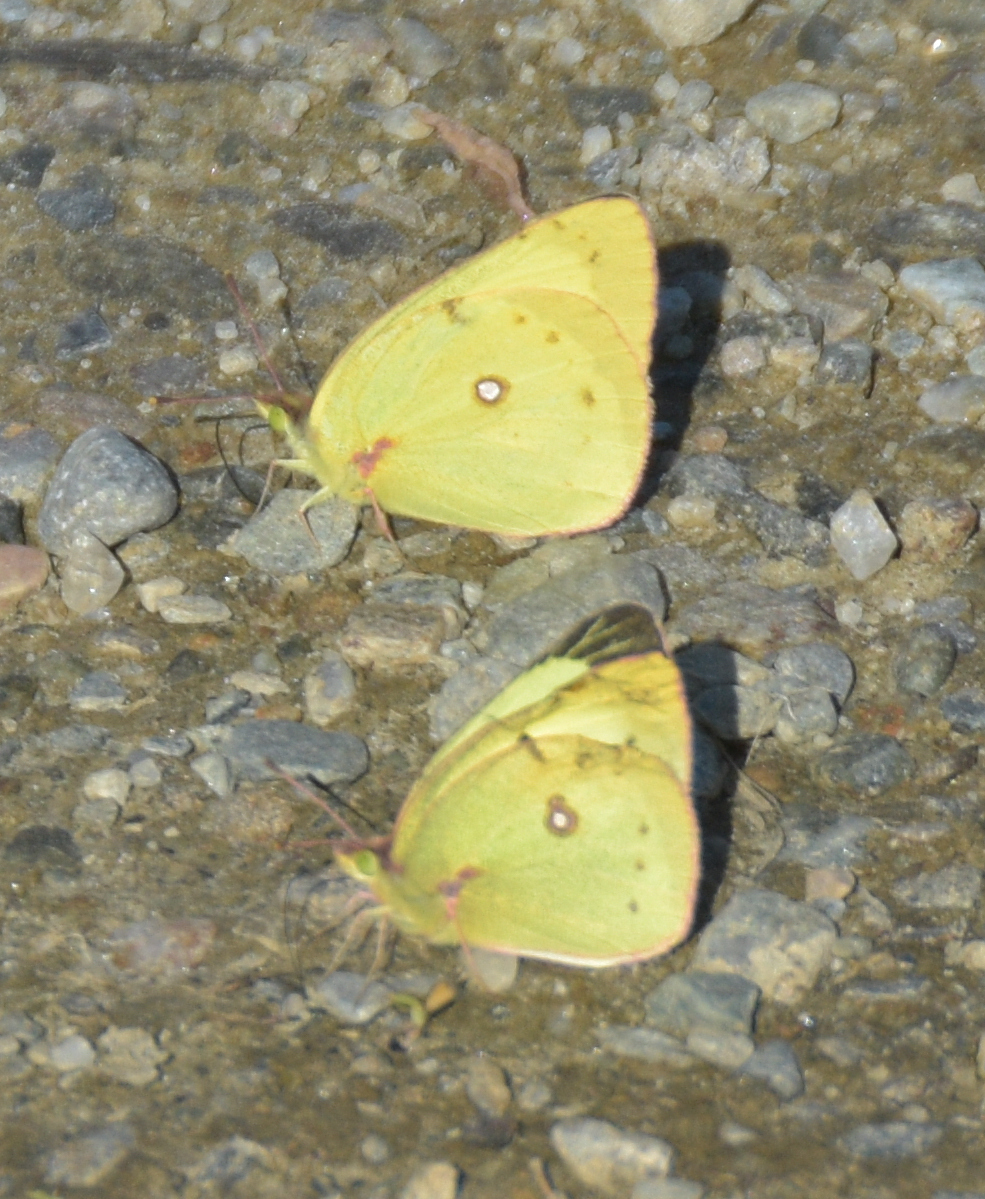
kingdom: Animalia
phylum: Arthropoda
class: Insecta
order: Lepidoptera
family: Pieridae
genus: Colias
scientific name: Colias philodice
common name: Clouded sulphur
